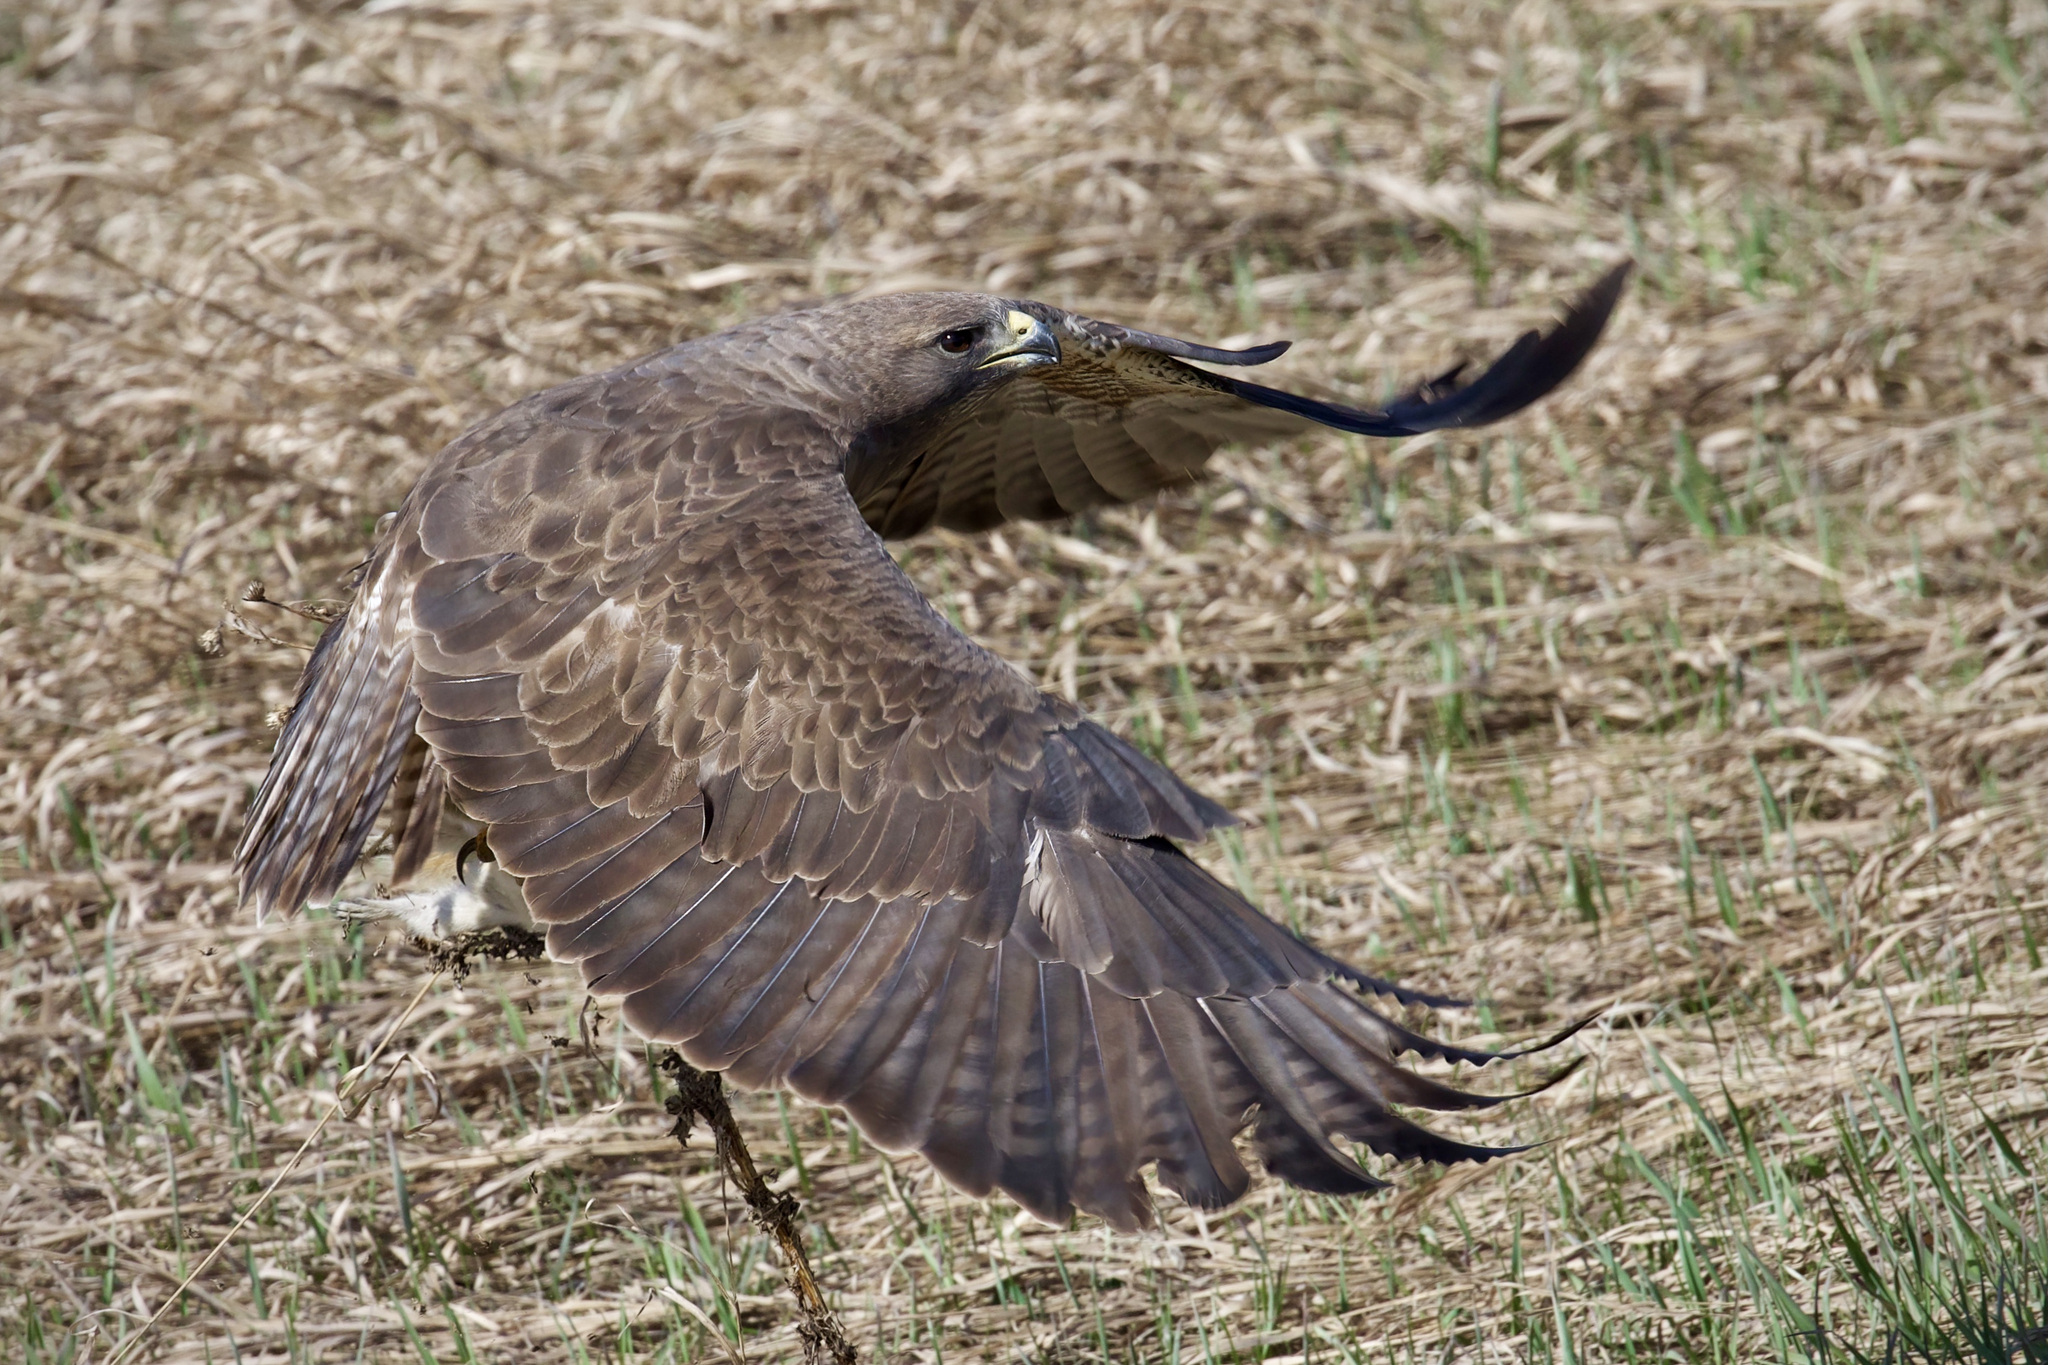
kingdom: Animalia
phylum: Chordata
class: Aves
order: Accipitriformes
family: Accipitridae
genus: Buteo
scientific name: Buteo swainsoni
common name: Swainson's hawk
